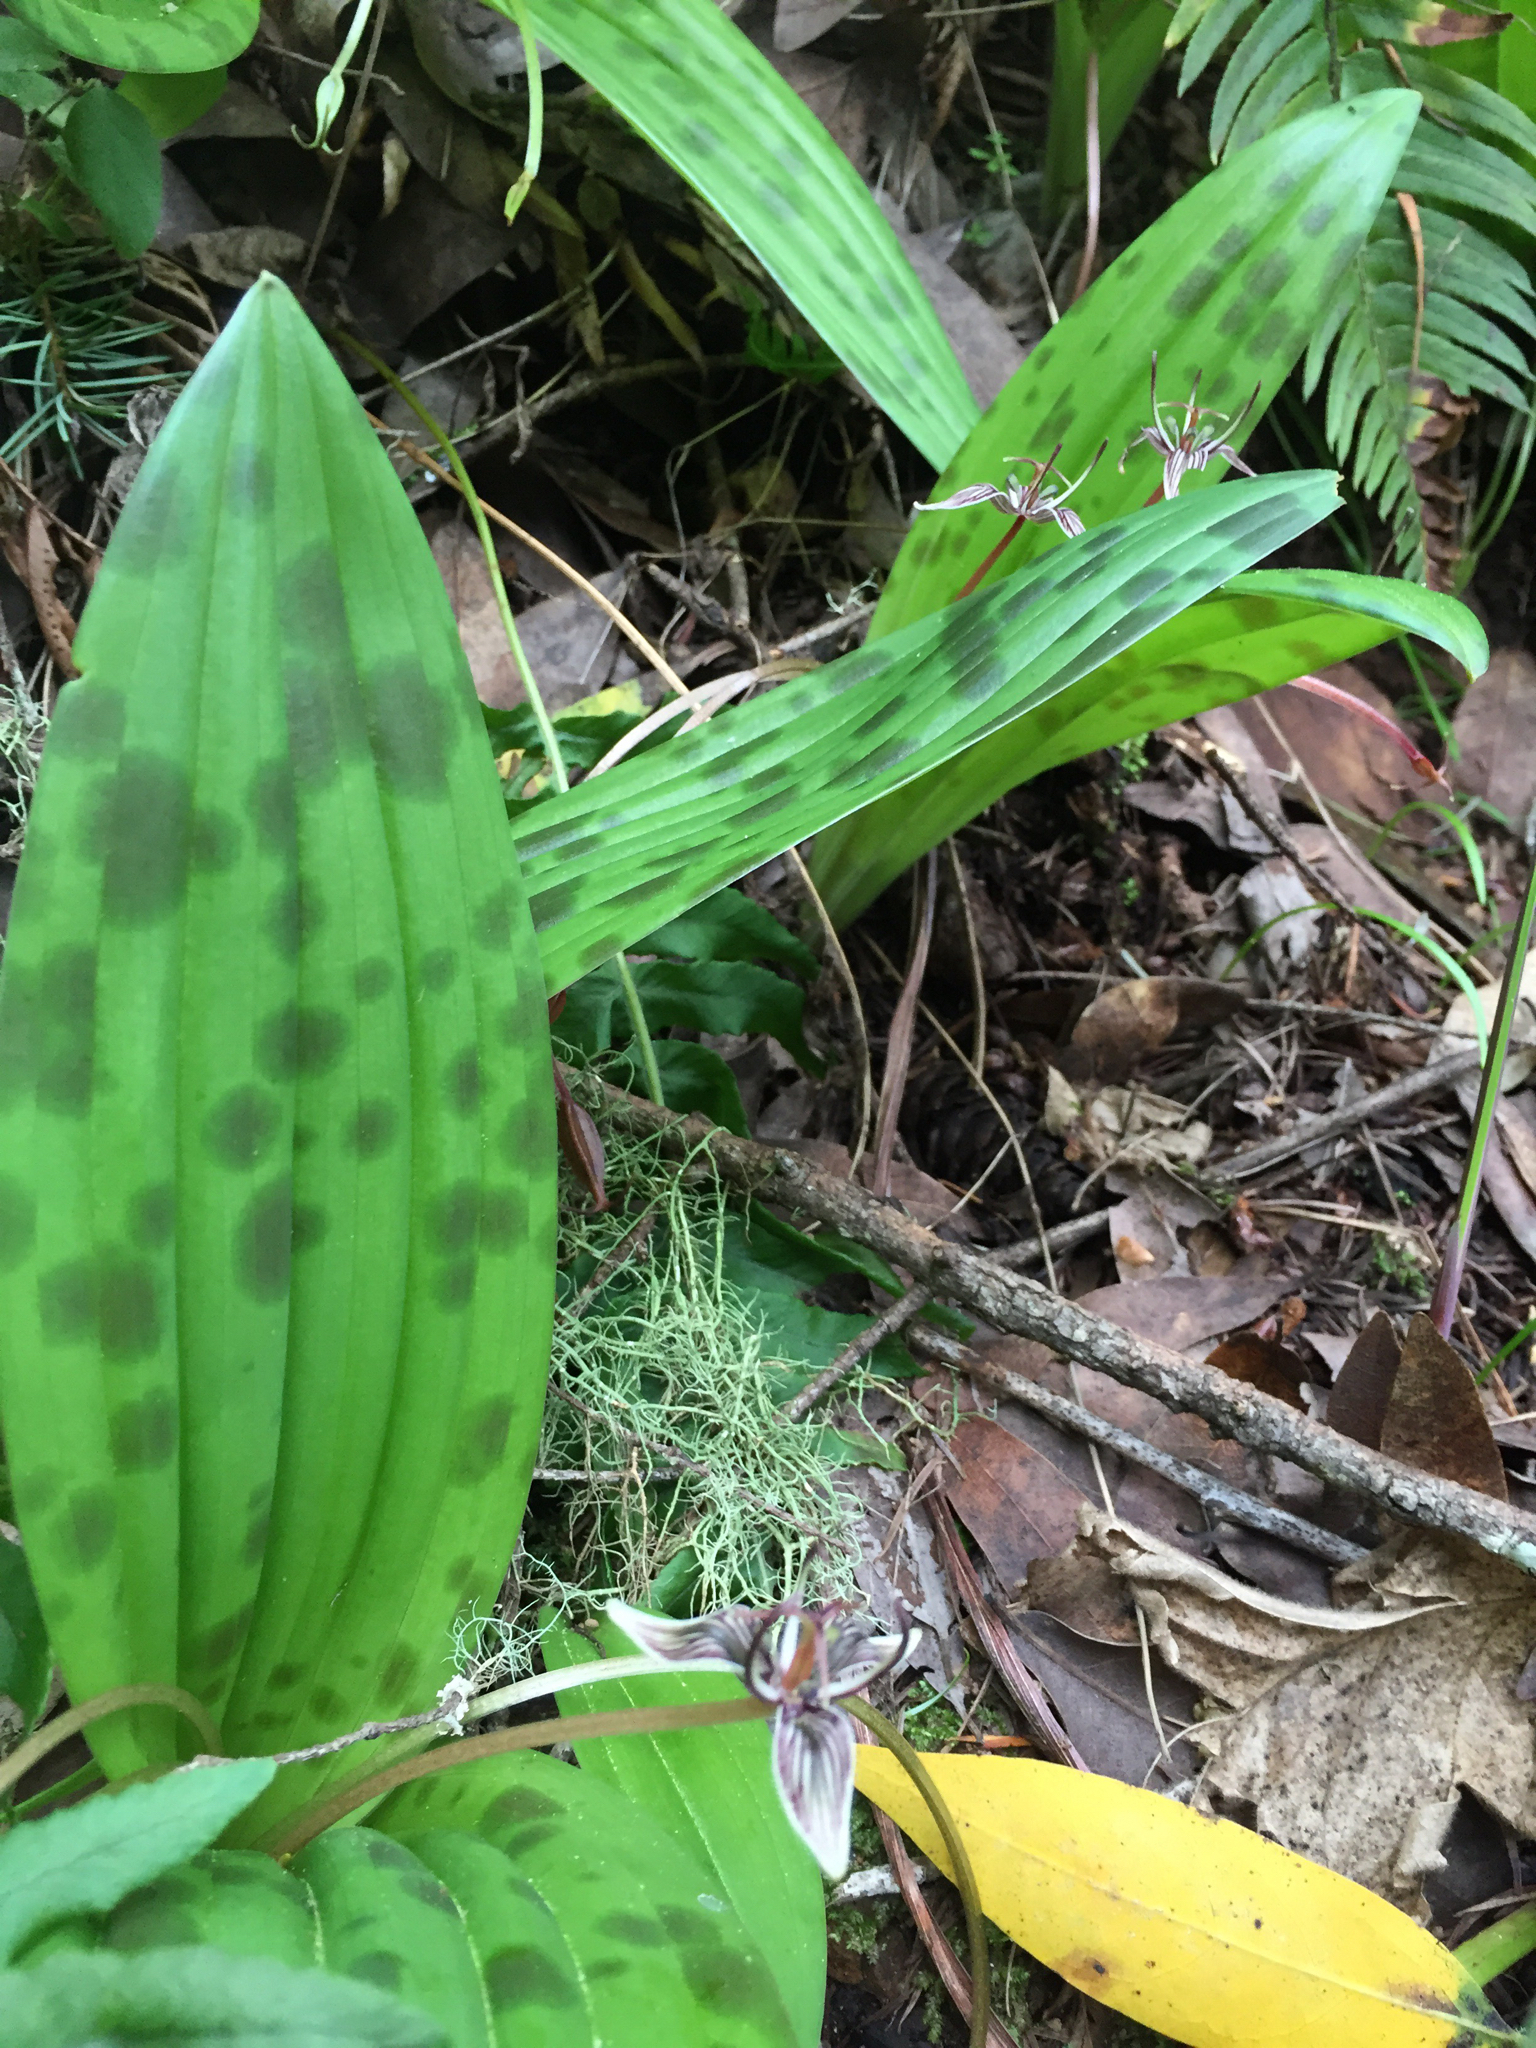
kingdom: Plantae
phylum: Tracheophyta
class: Liliopsida
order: Liliales
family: Liliaceae
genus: Scoliopus
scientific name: Scoliopus bigelovii
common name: Foetid adder's-tongue
